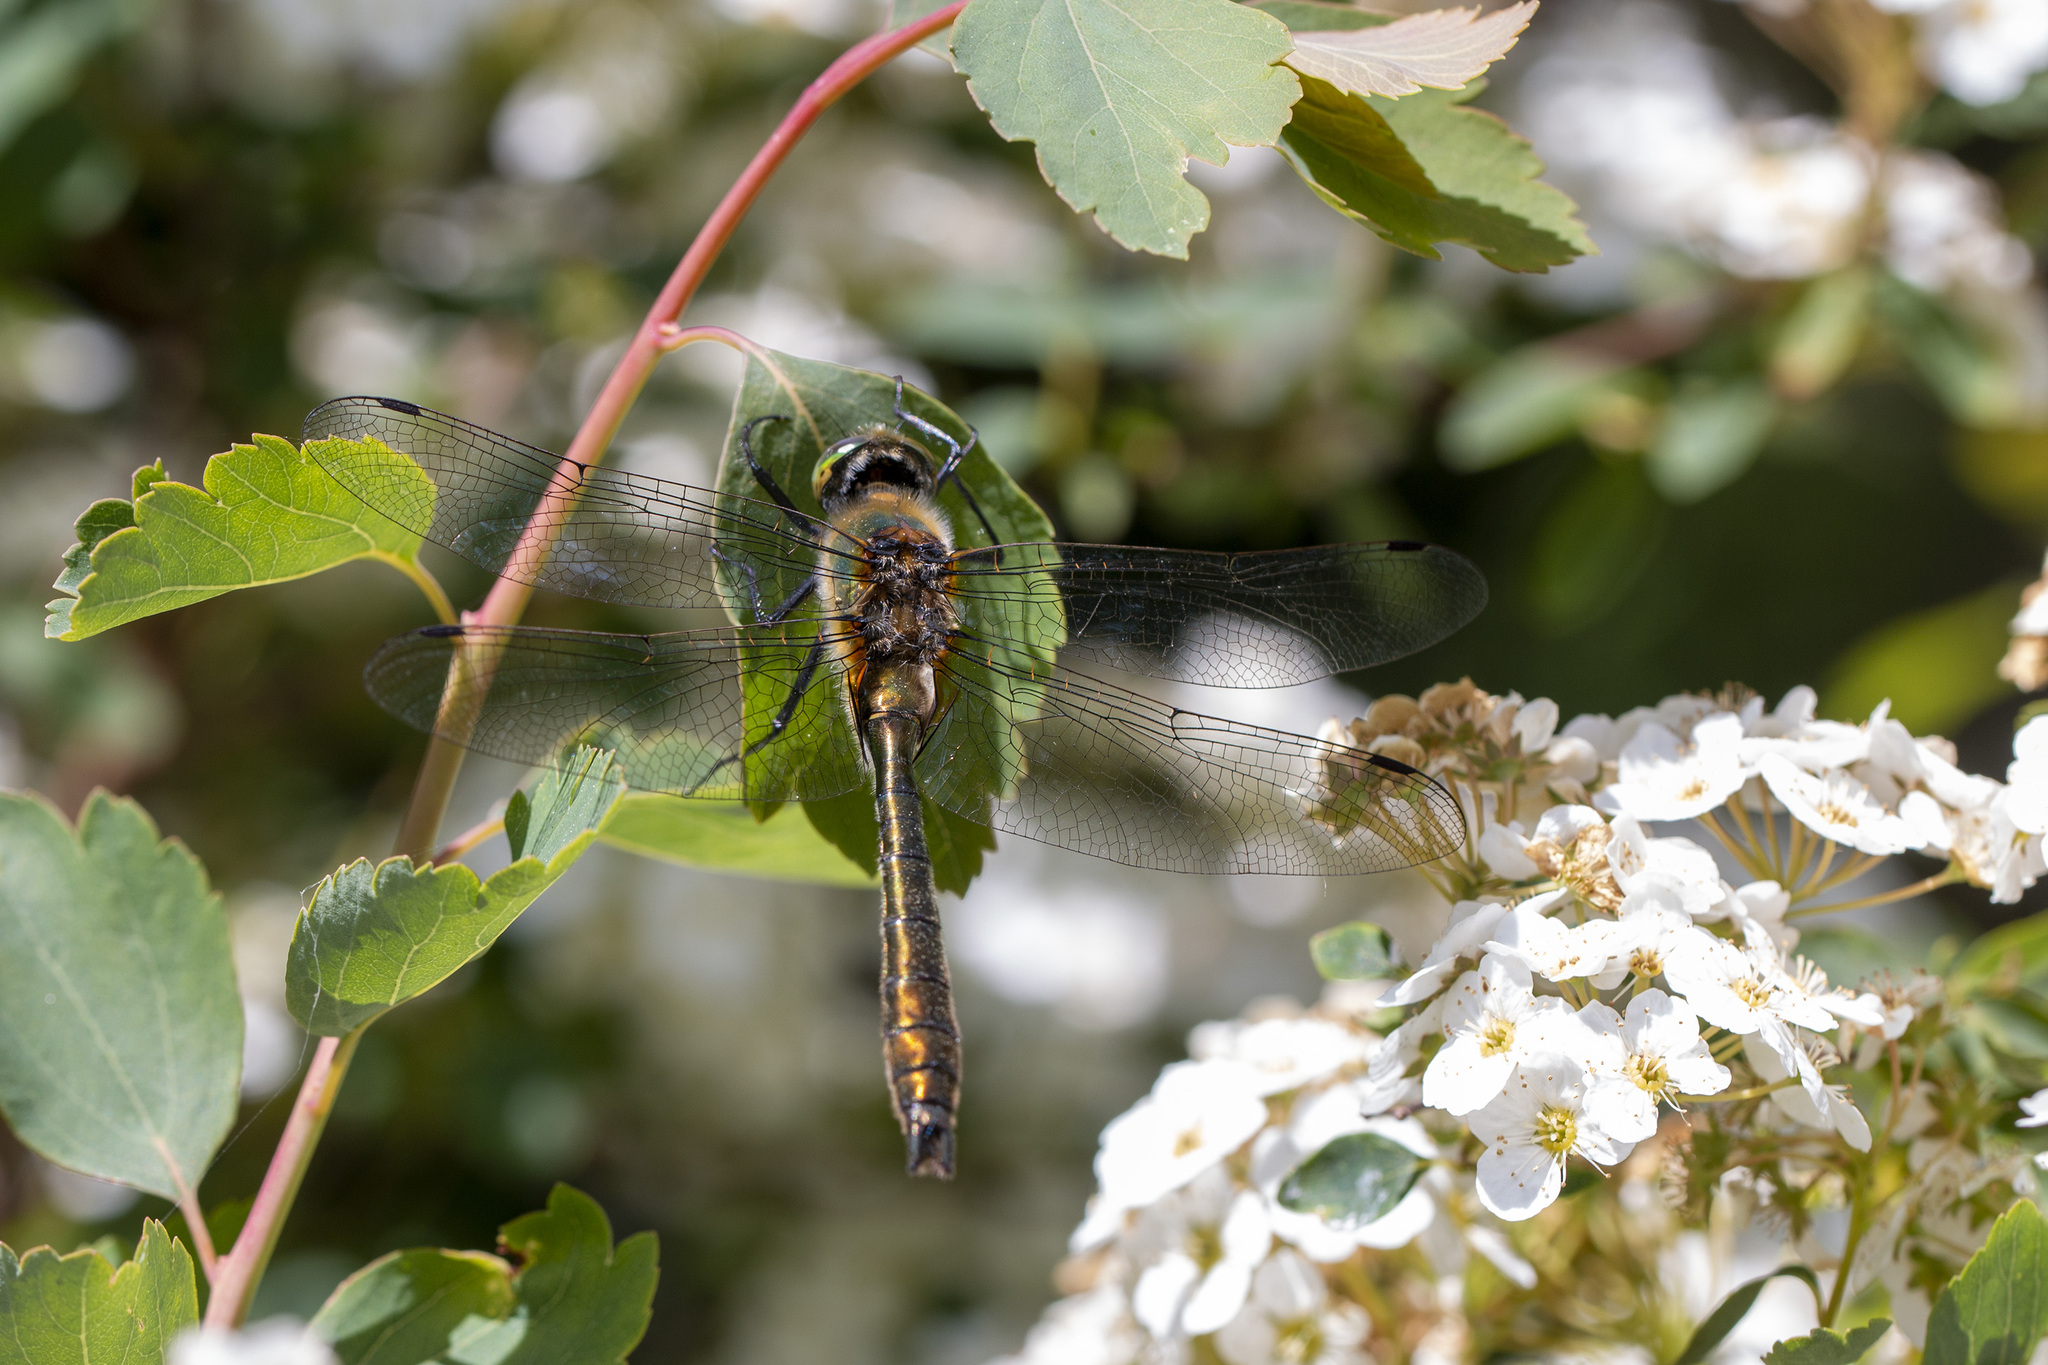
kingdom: Animalia
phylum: Arthropoda
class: Insecta
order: Odonata
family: Corduliidae
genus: Cordulia
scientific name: Cordulia aenea
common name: Downy emerald
